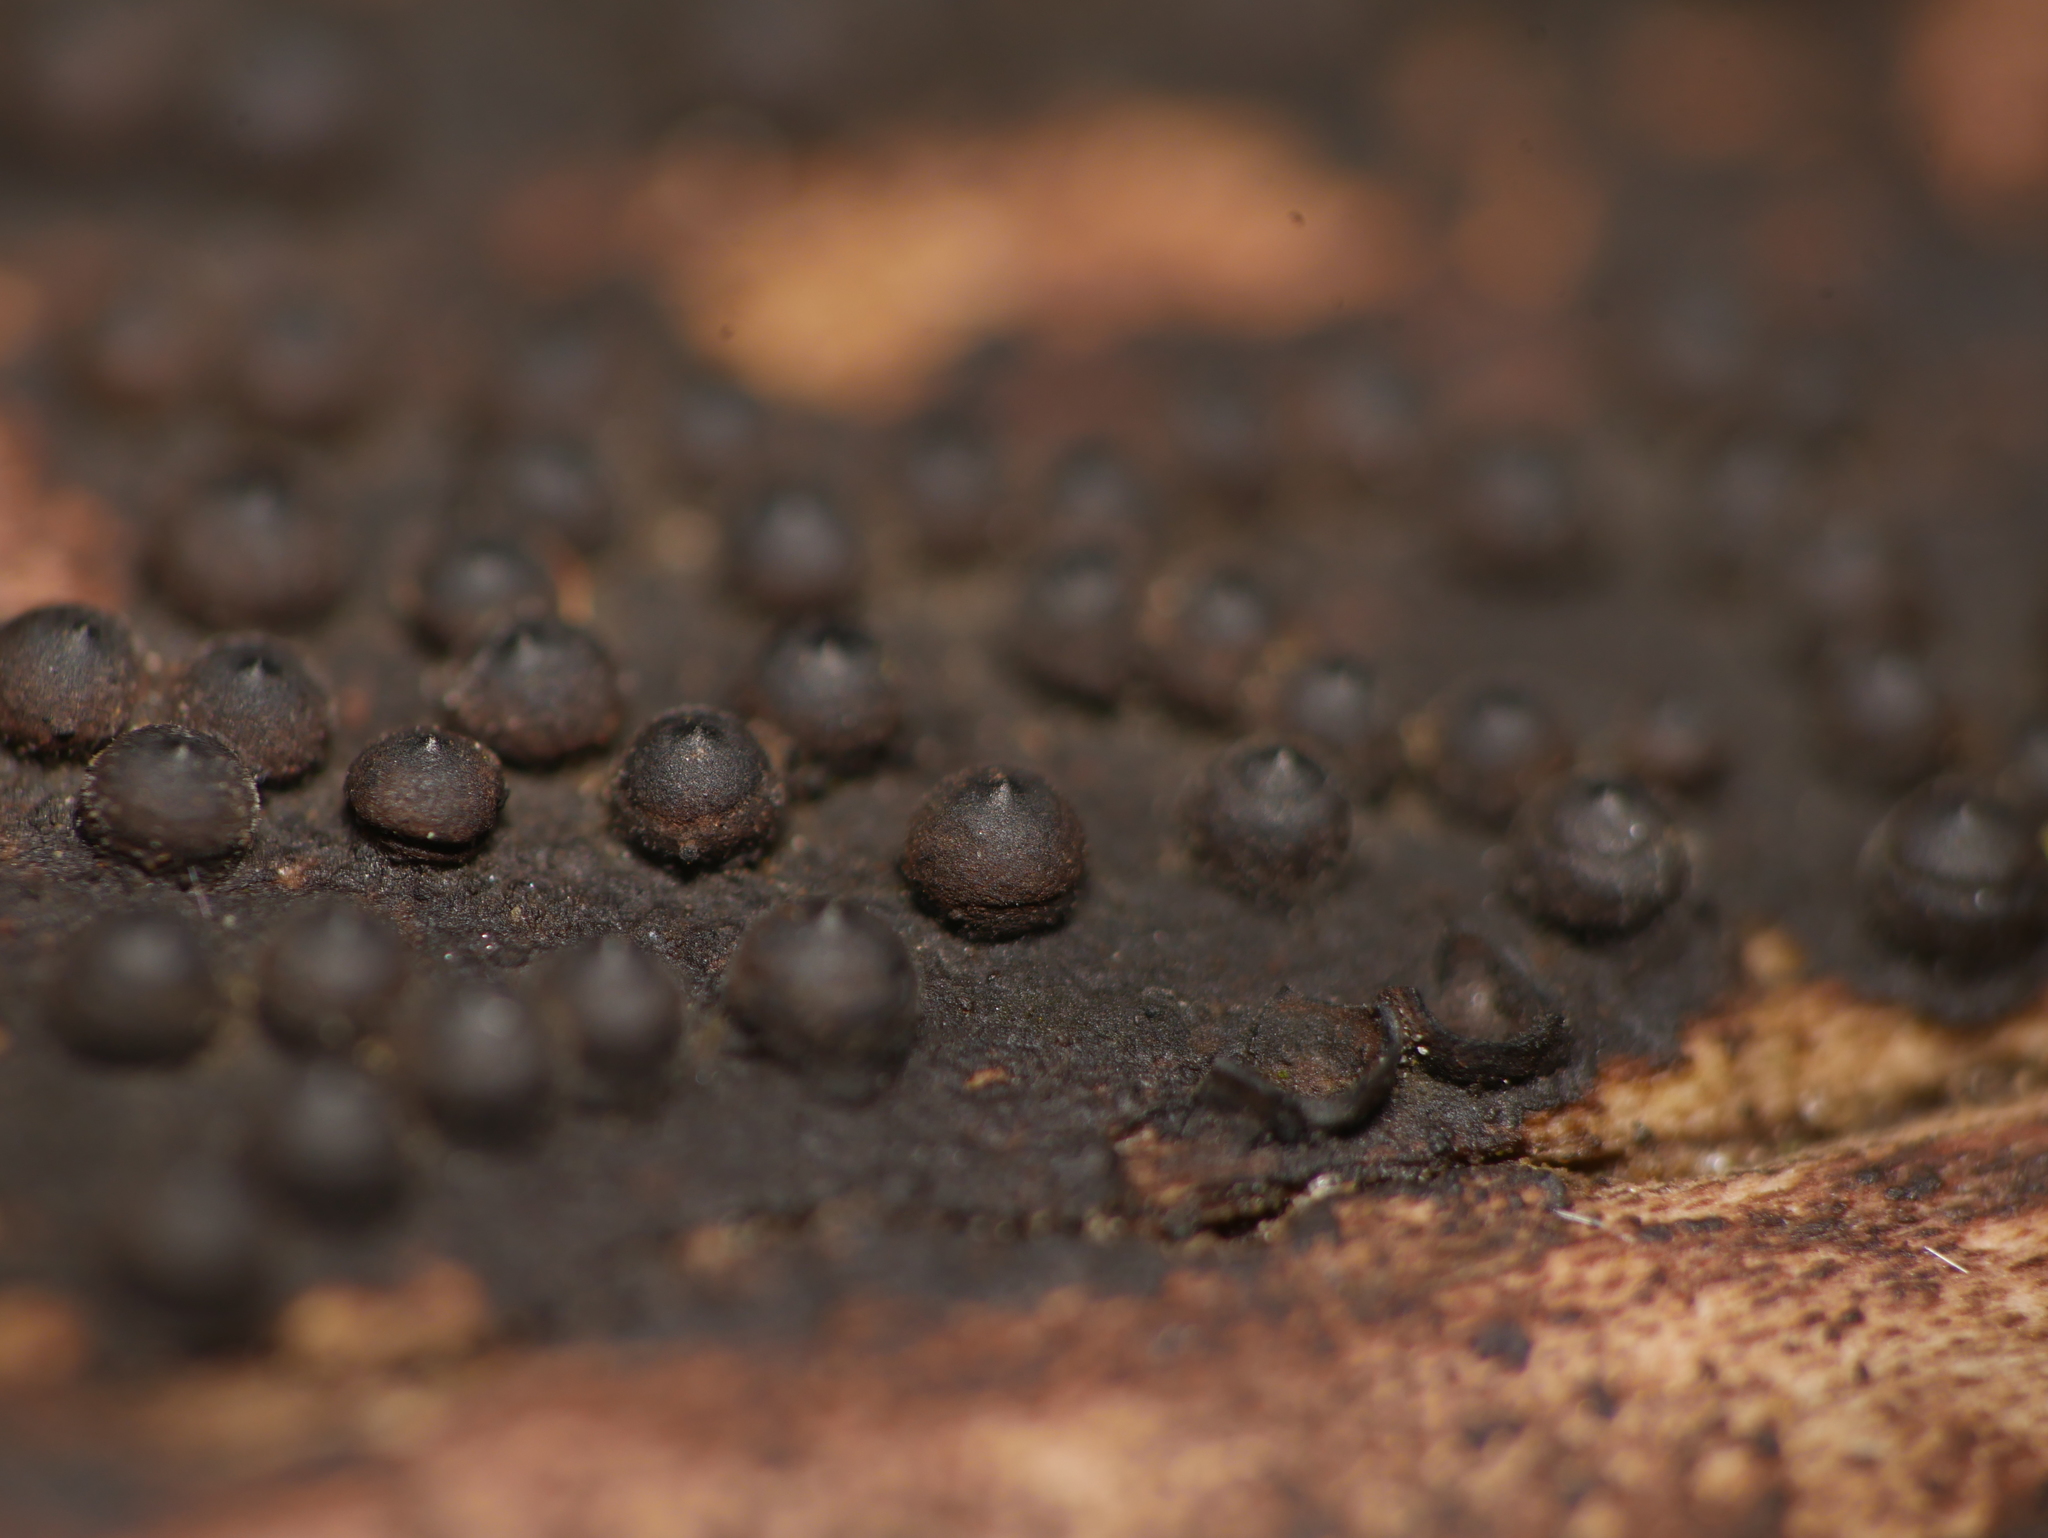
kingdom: Fungi
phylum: Ascomycota
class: Sordariomycetes
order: Xylariales
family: Xylariaceae
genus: Rosellinia
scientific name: Rosellinia corticium
